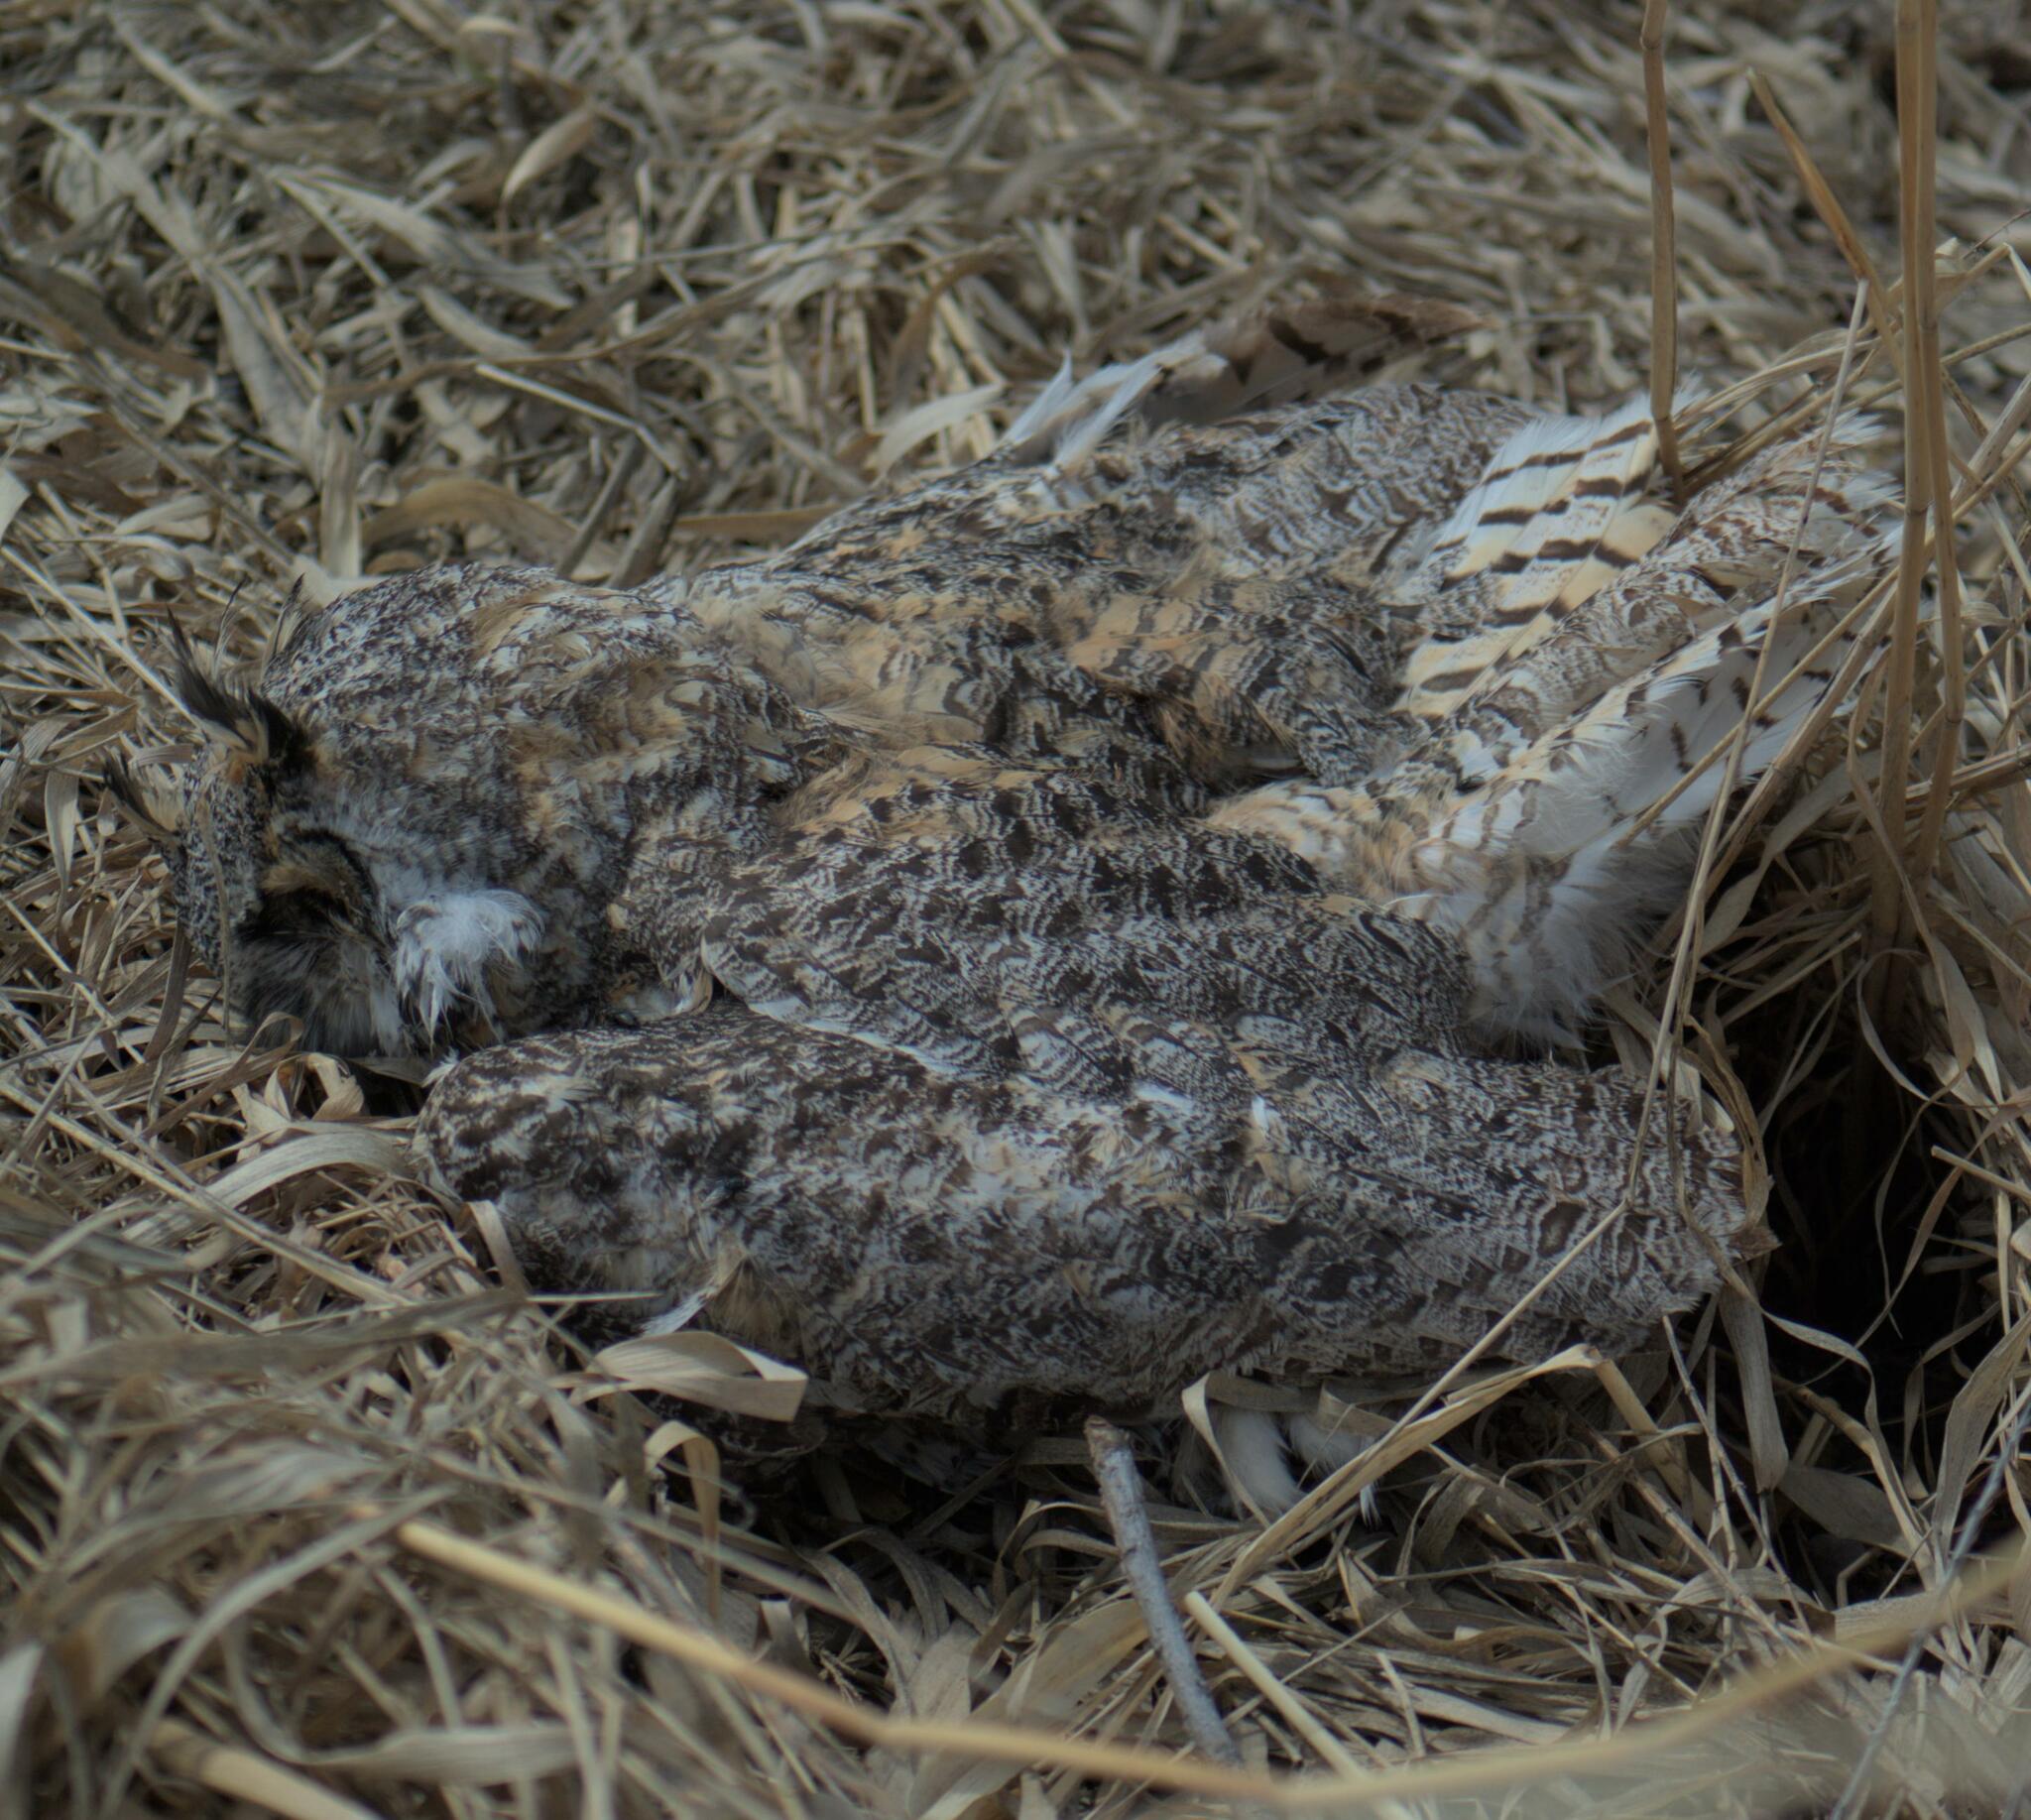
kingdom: Animalia
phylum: Chordata
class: Aves
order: Strigiformes
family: Strigidae
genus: Bubo
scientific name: Bubo virginianus
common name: Great horned owl
